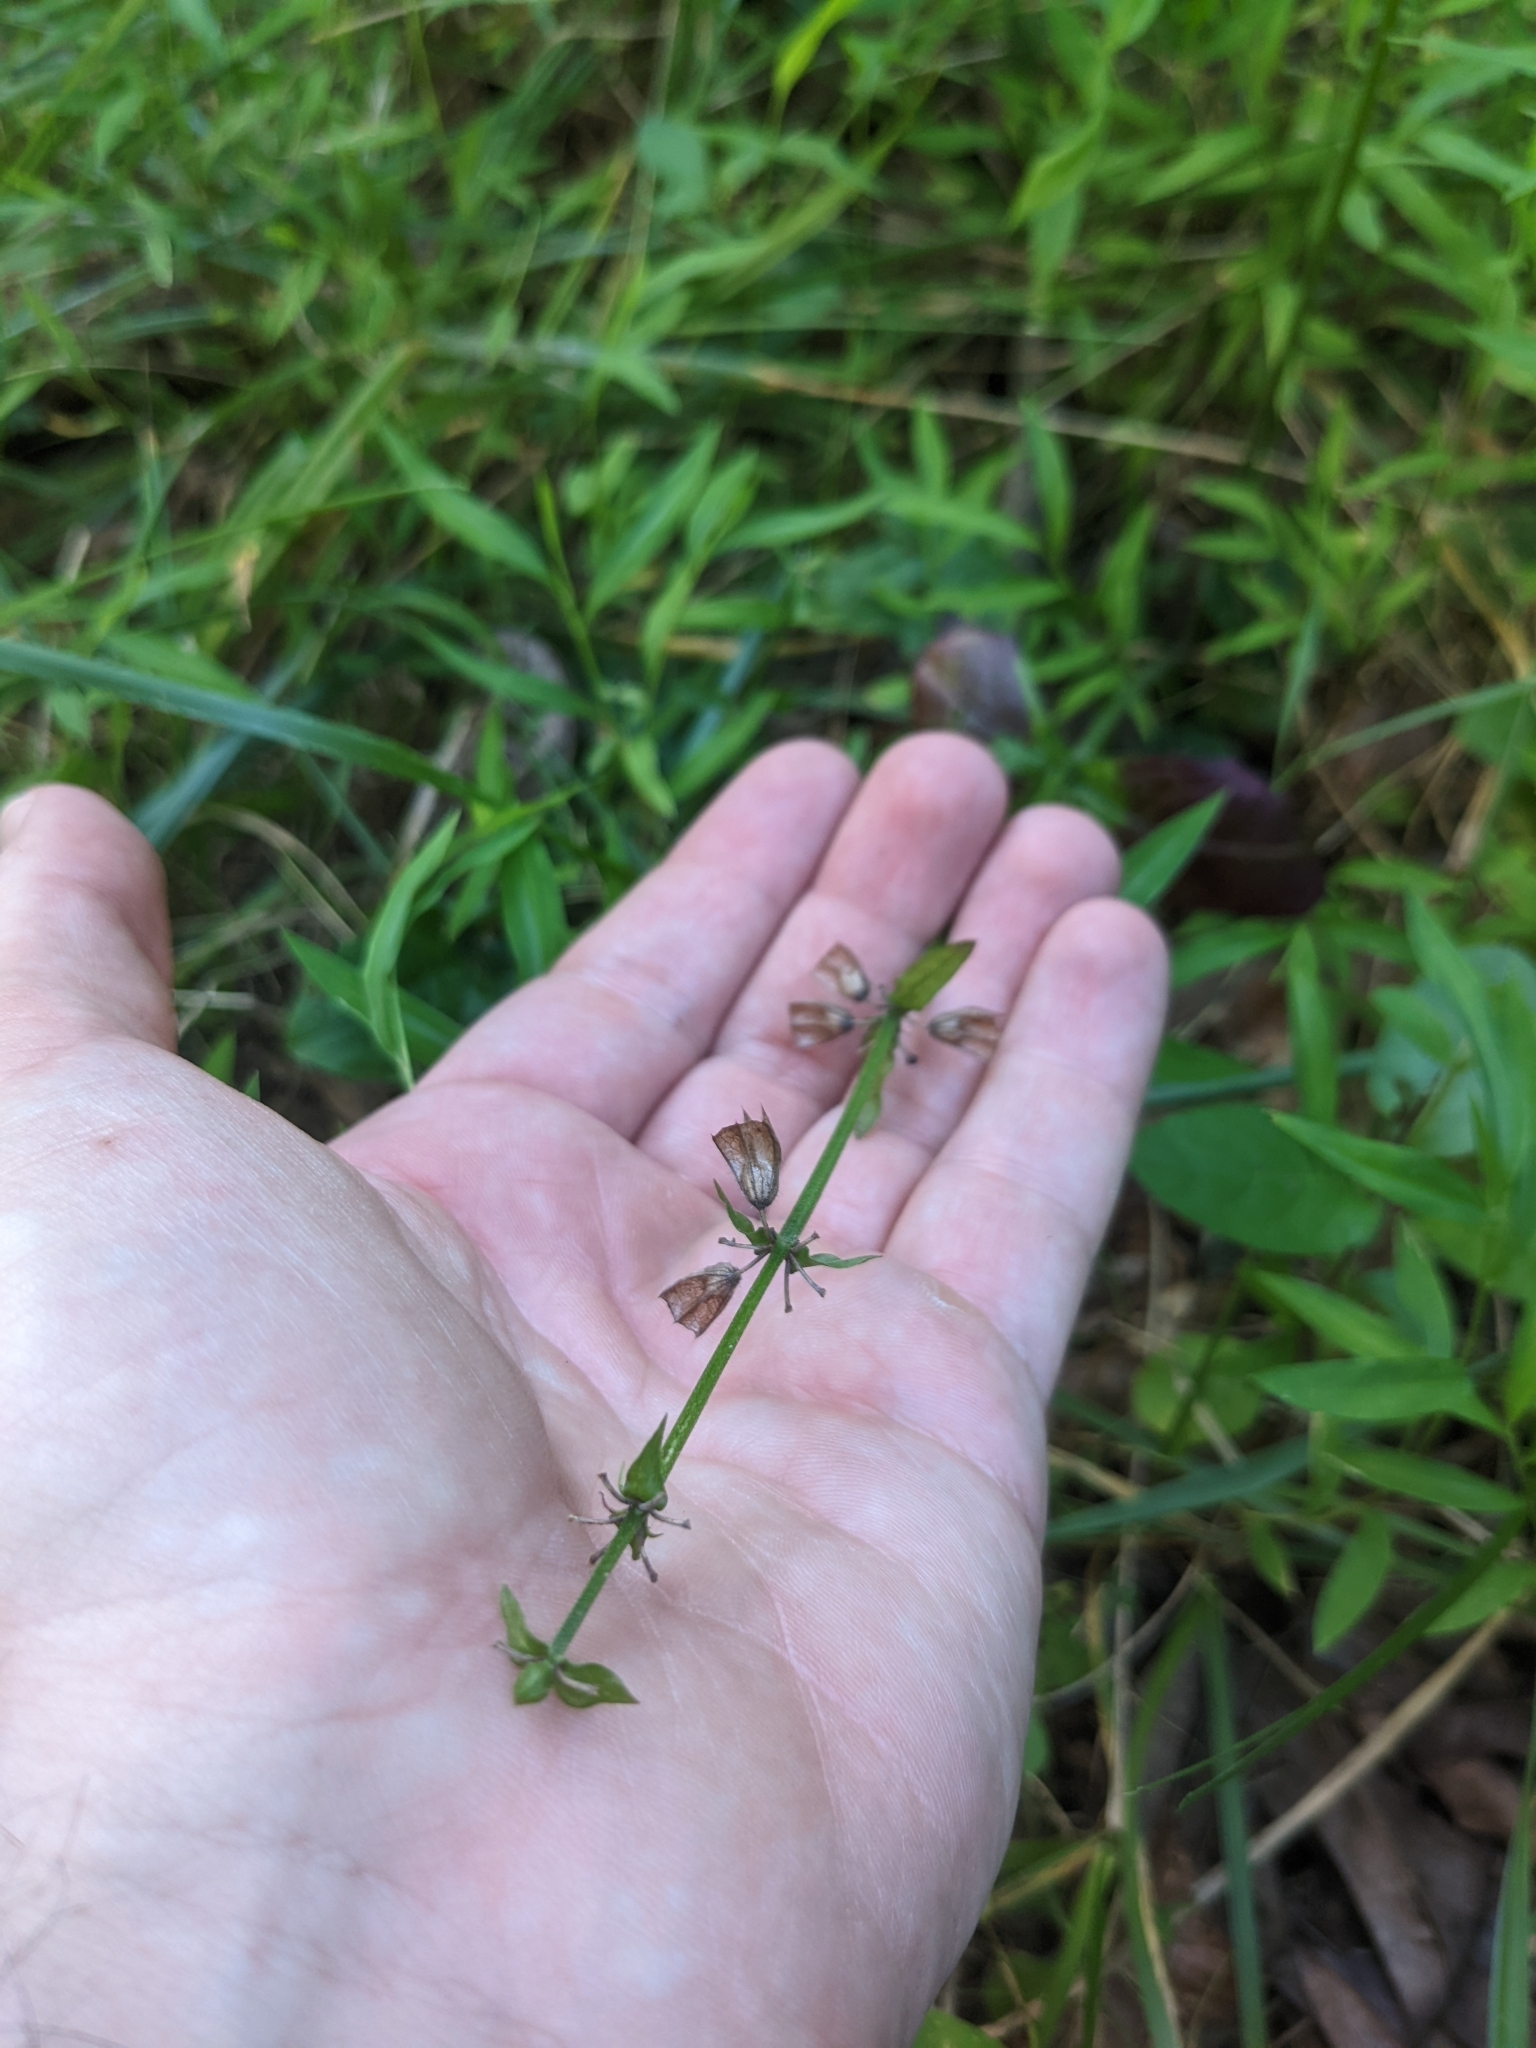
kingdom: Plantae
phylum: Tracheophyta
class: Magnoliopsida
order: Lamiales
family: Lamiaceae
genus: Salvia
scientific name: Salvia lyrata
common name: Cancerweed
